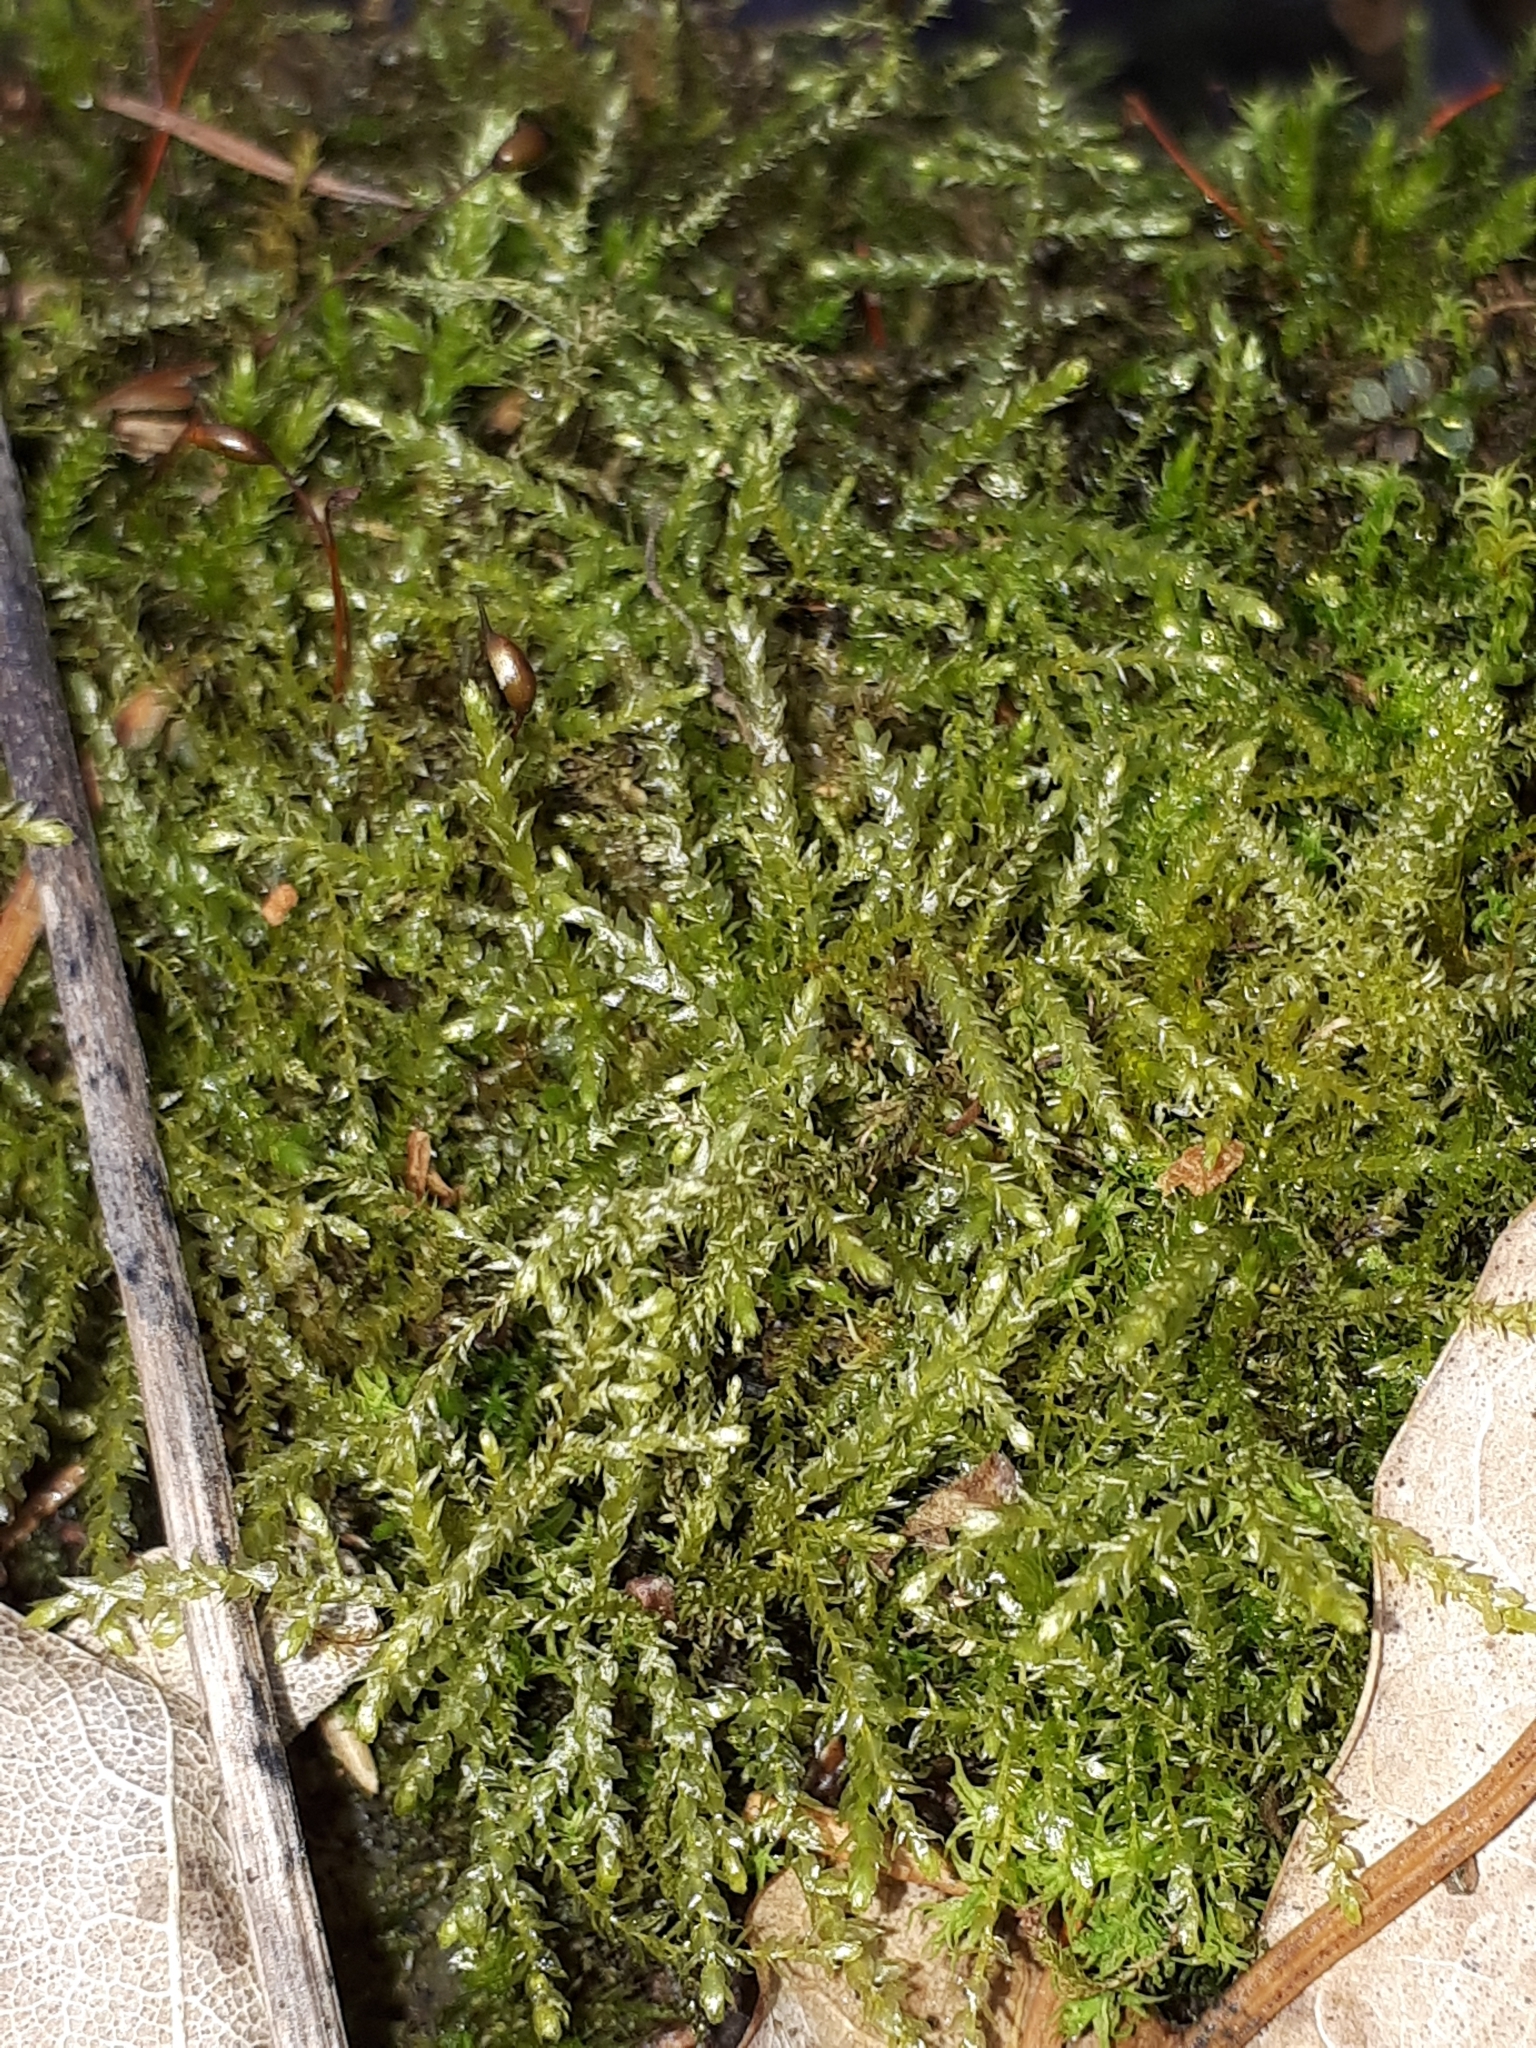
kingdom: Plantae
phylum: Bryophyta
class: Bryopsida
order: Hypnales
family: Brachytheciaceae
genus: Oxyrrhynchium
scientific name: Oxyrrhynchium hians
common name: Spreading beaked moss
